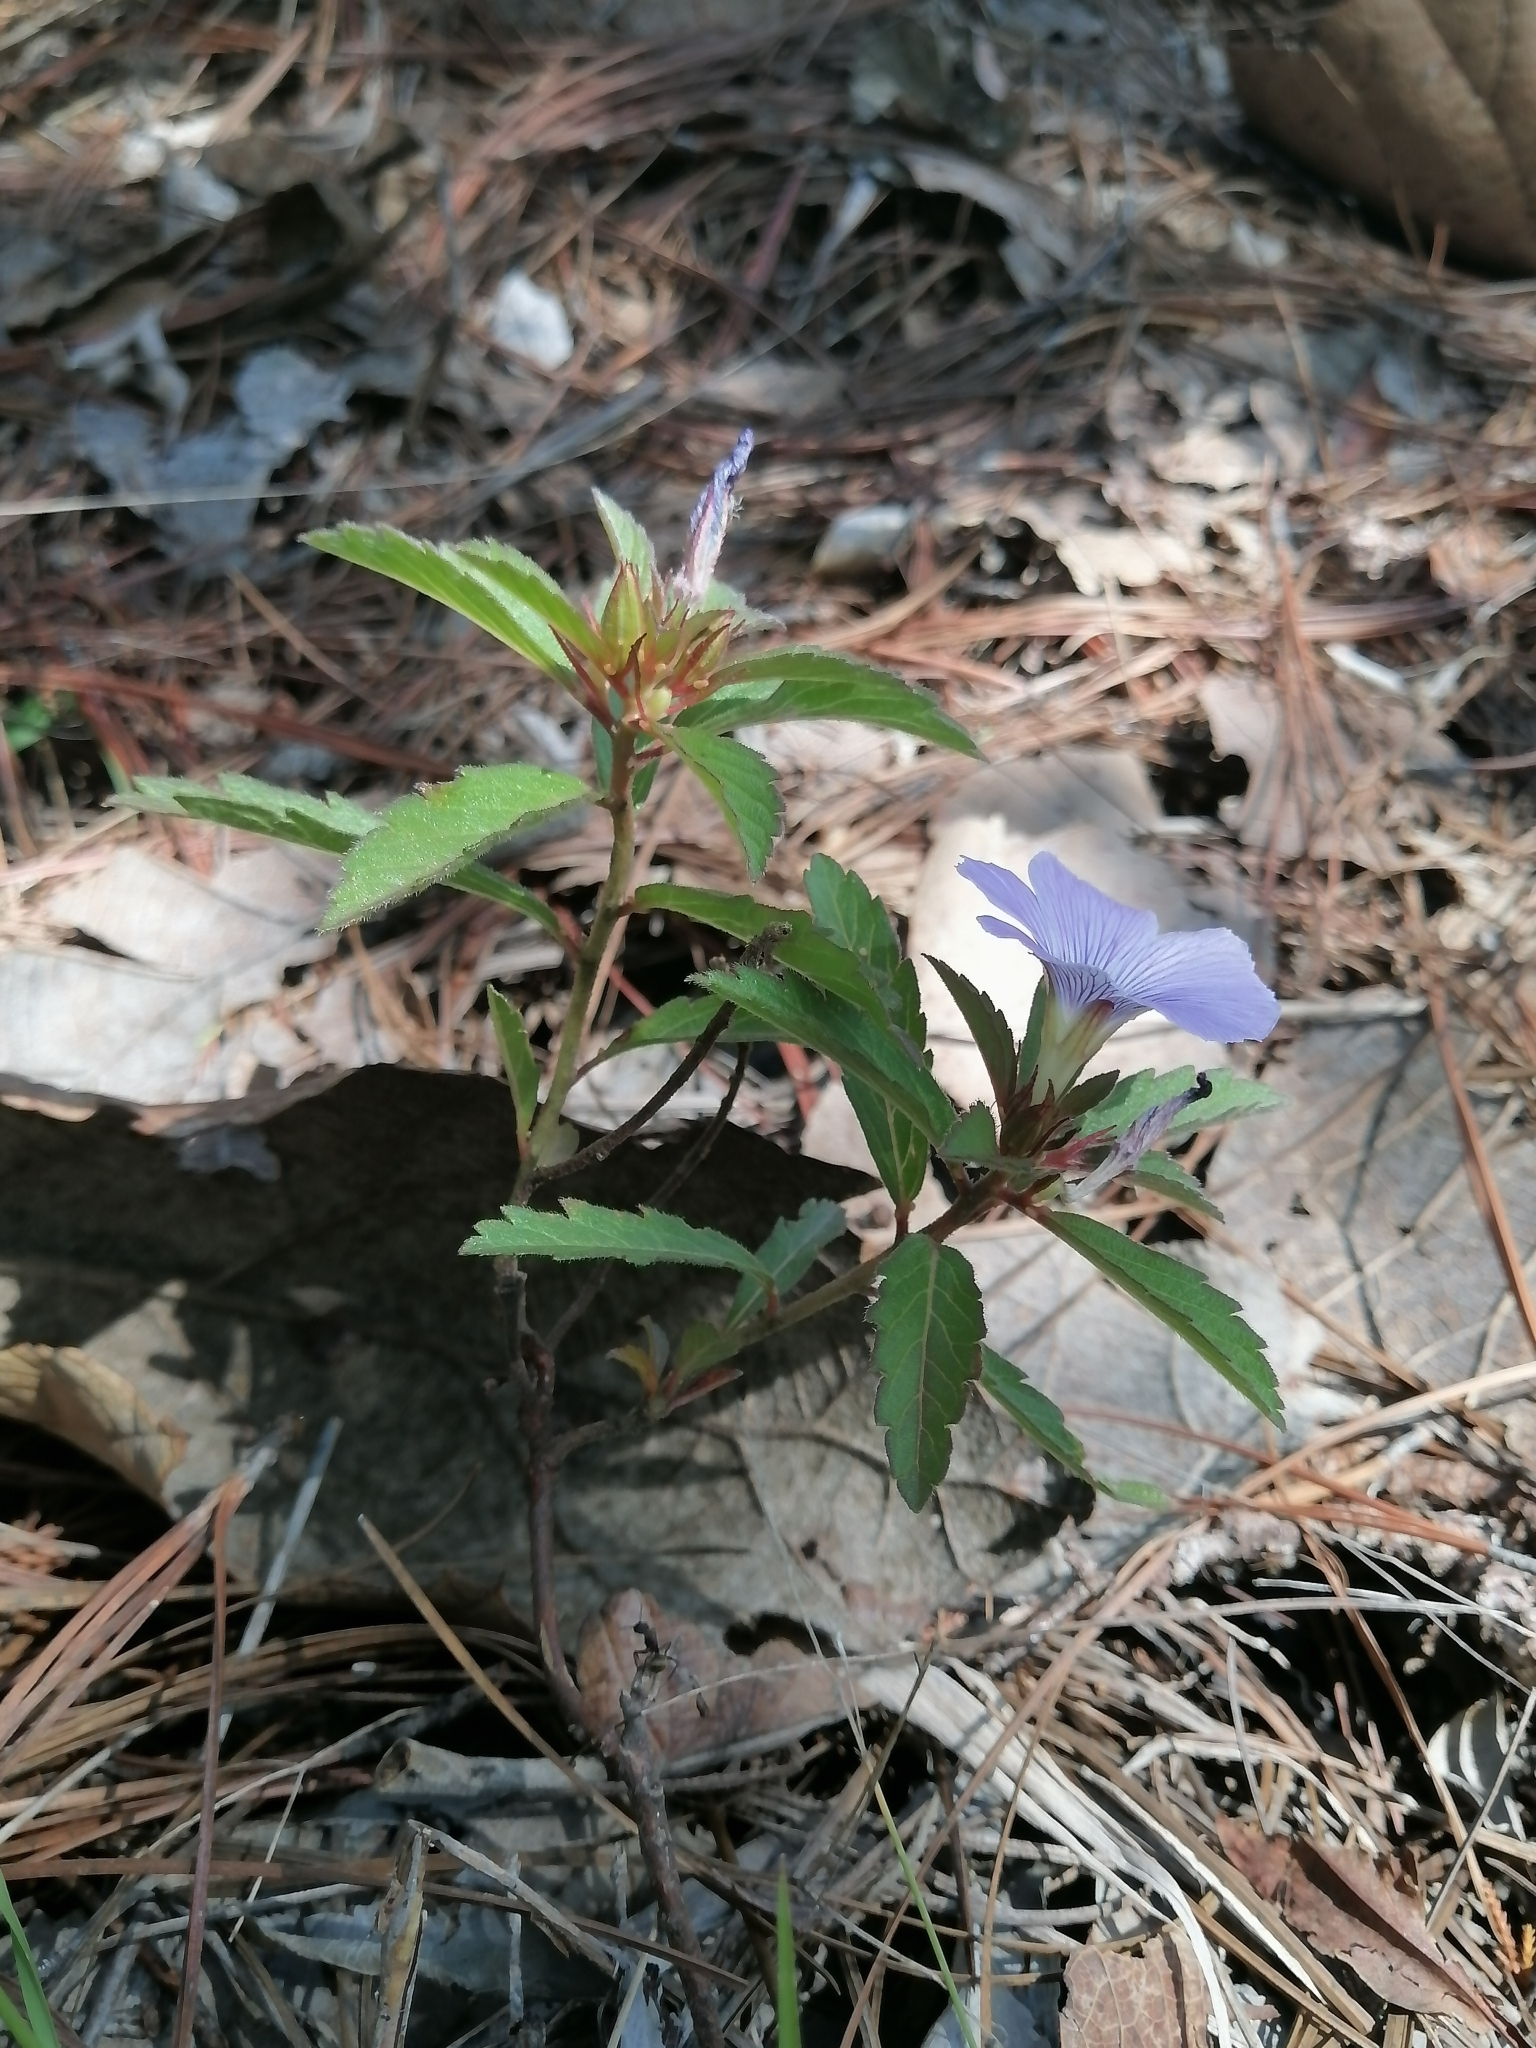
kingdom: Plantae
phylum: Tracheophyta
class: Magnoliopsida
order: Malpighiales
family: Turneraceae
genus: Turnera
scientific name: Turnera coerulea
